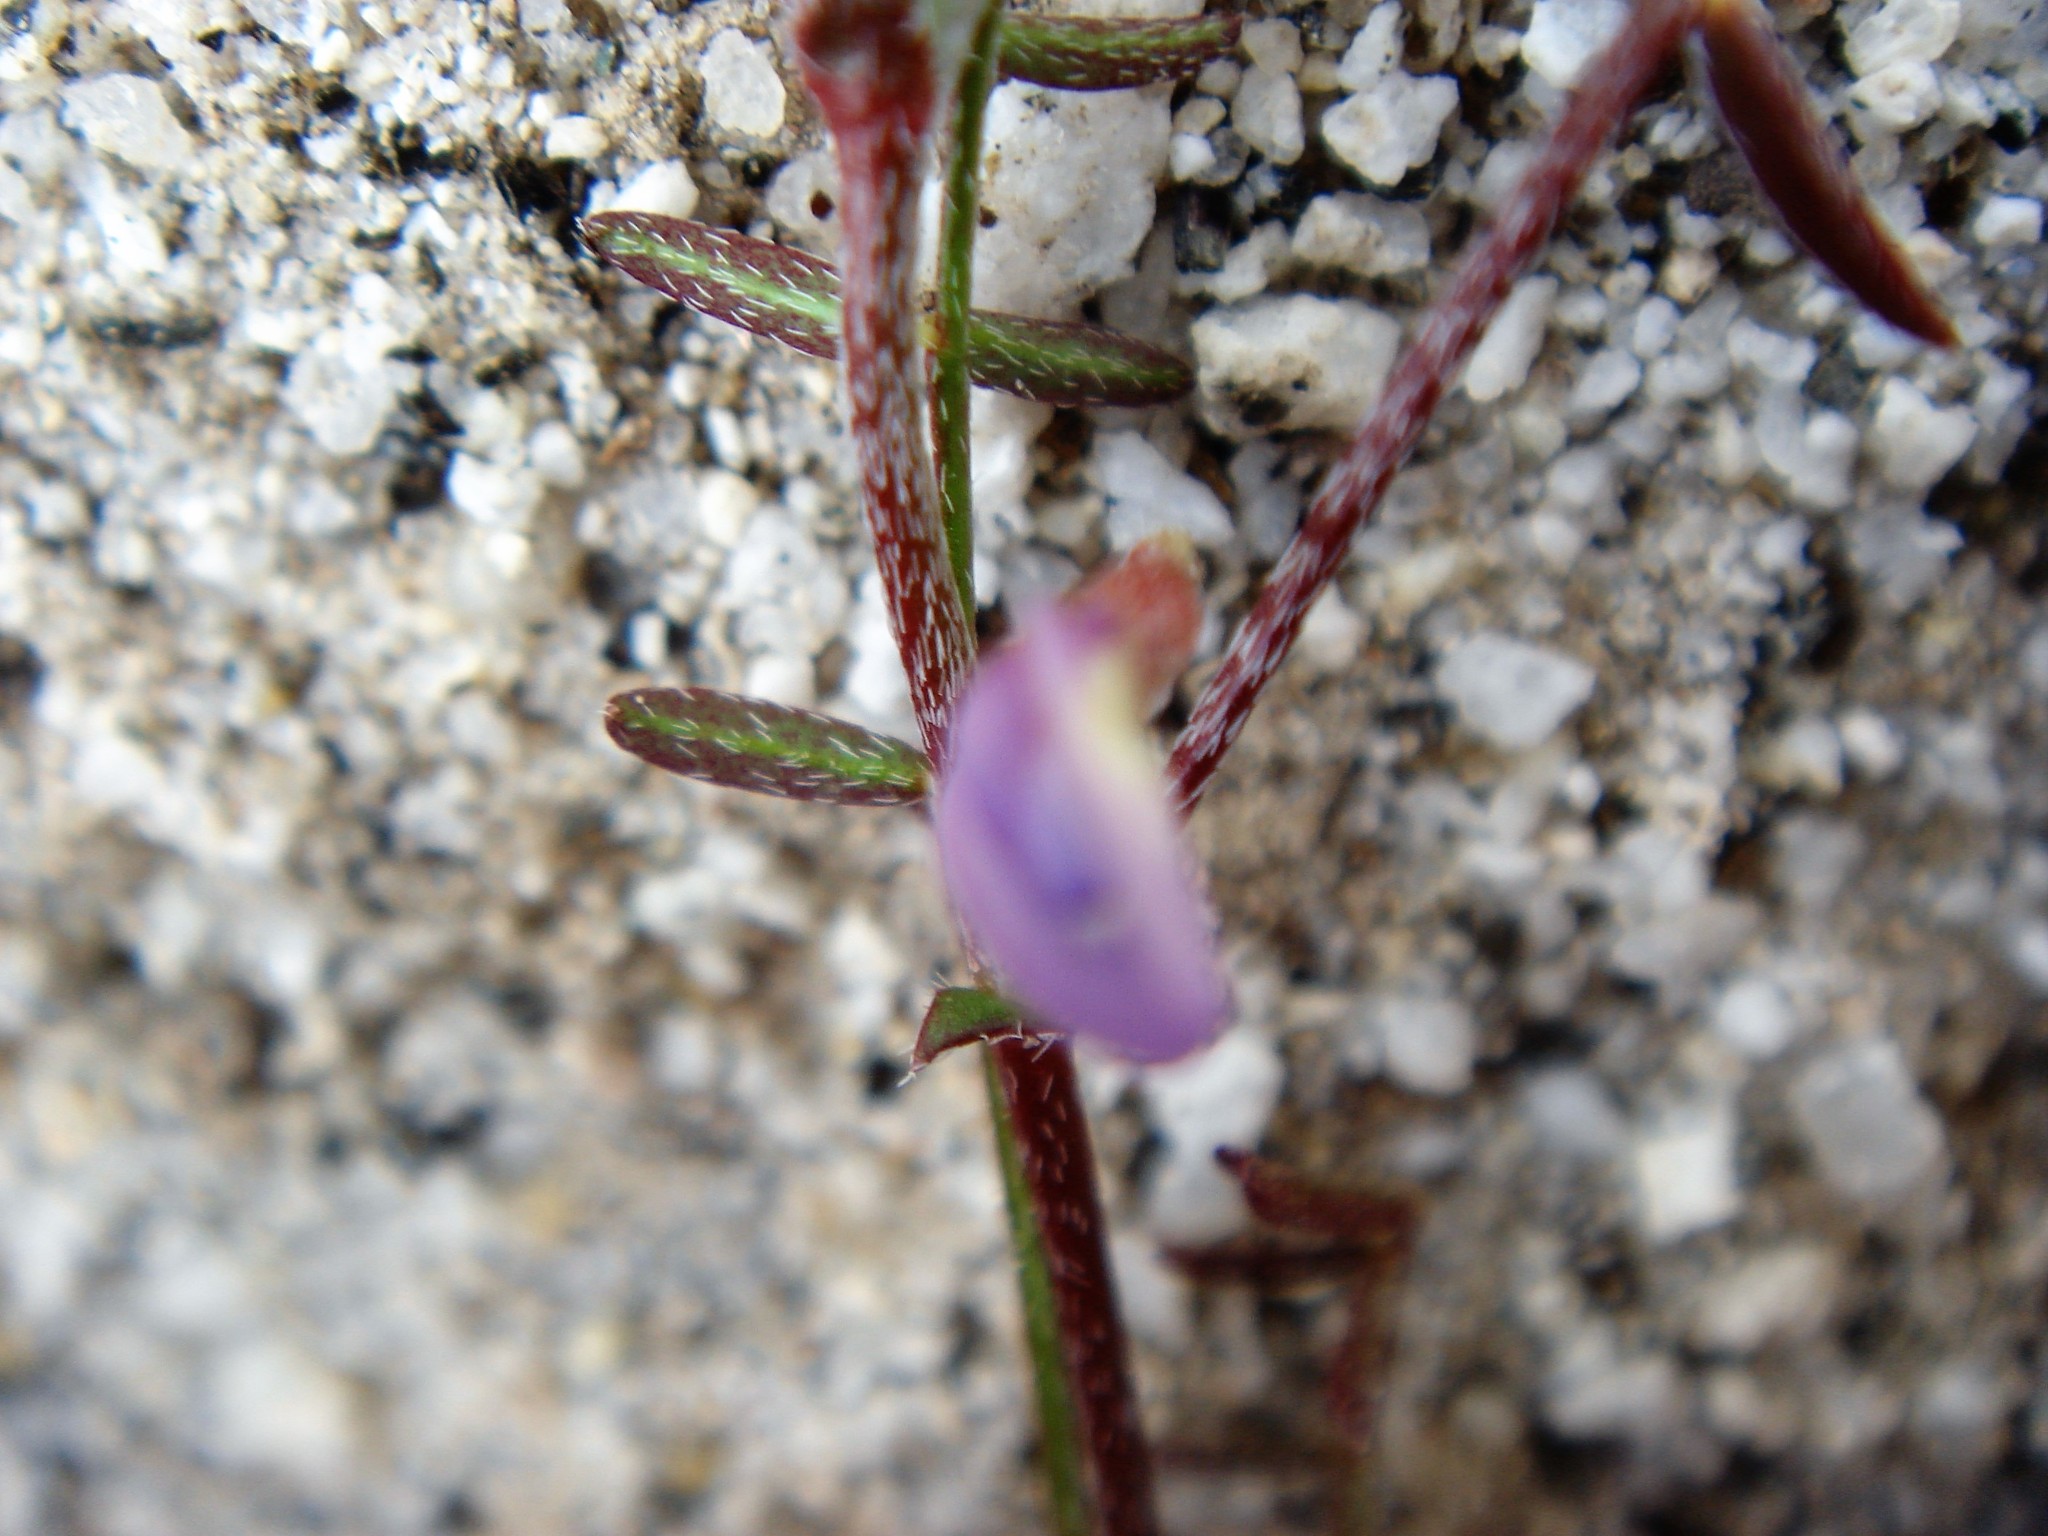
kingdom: Plantae
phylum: Tracheophyta
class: Magnoliopsida
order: Fabales
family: Fabaceae
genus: Astragalus
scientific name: Astragalus nuttallianus
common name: Smallflowered milkvetch
